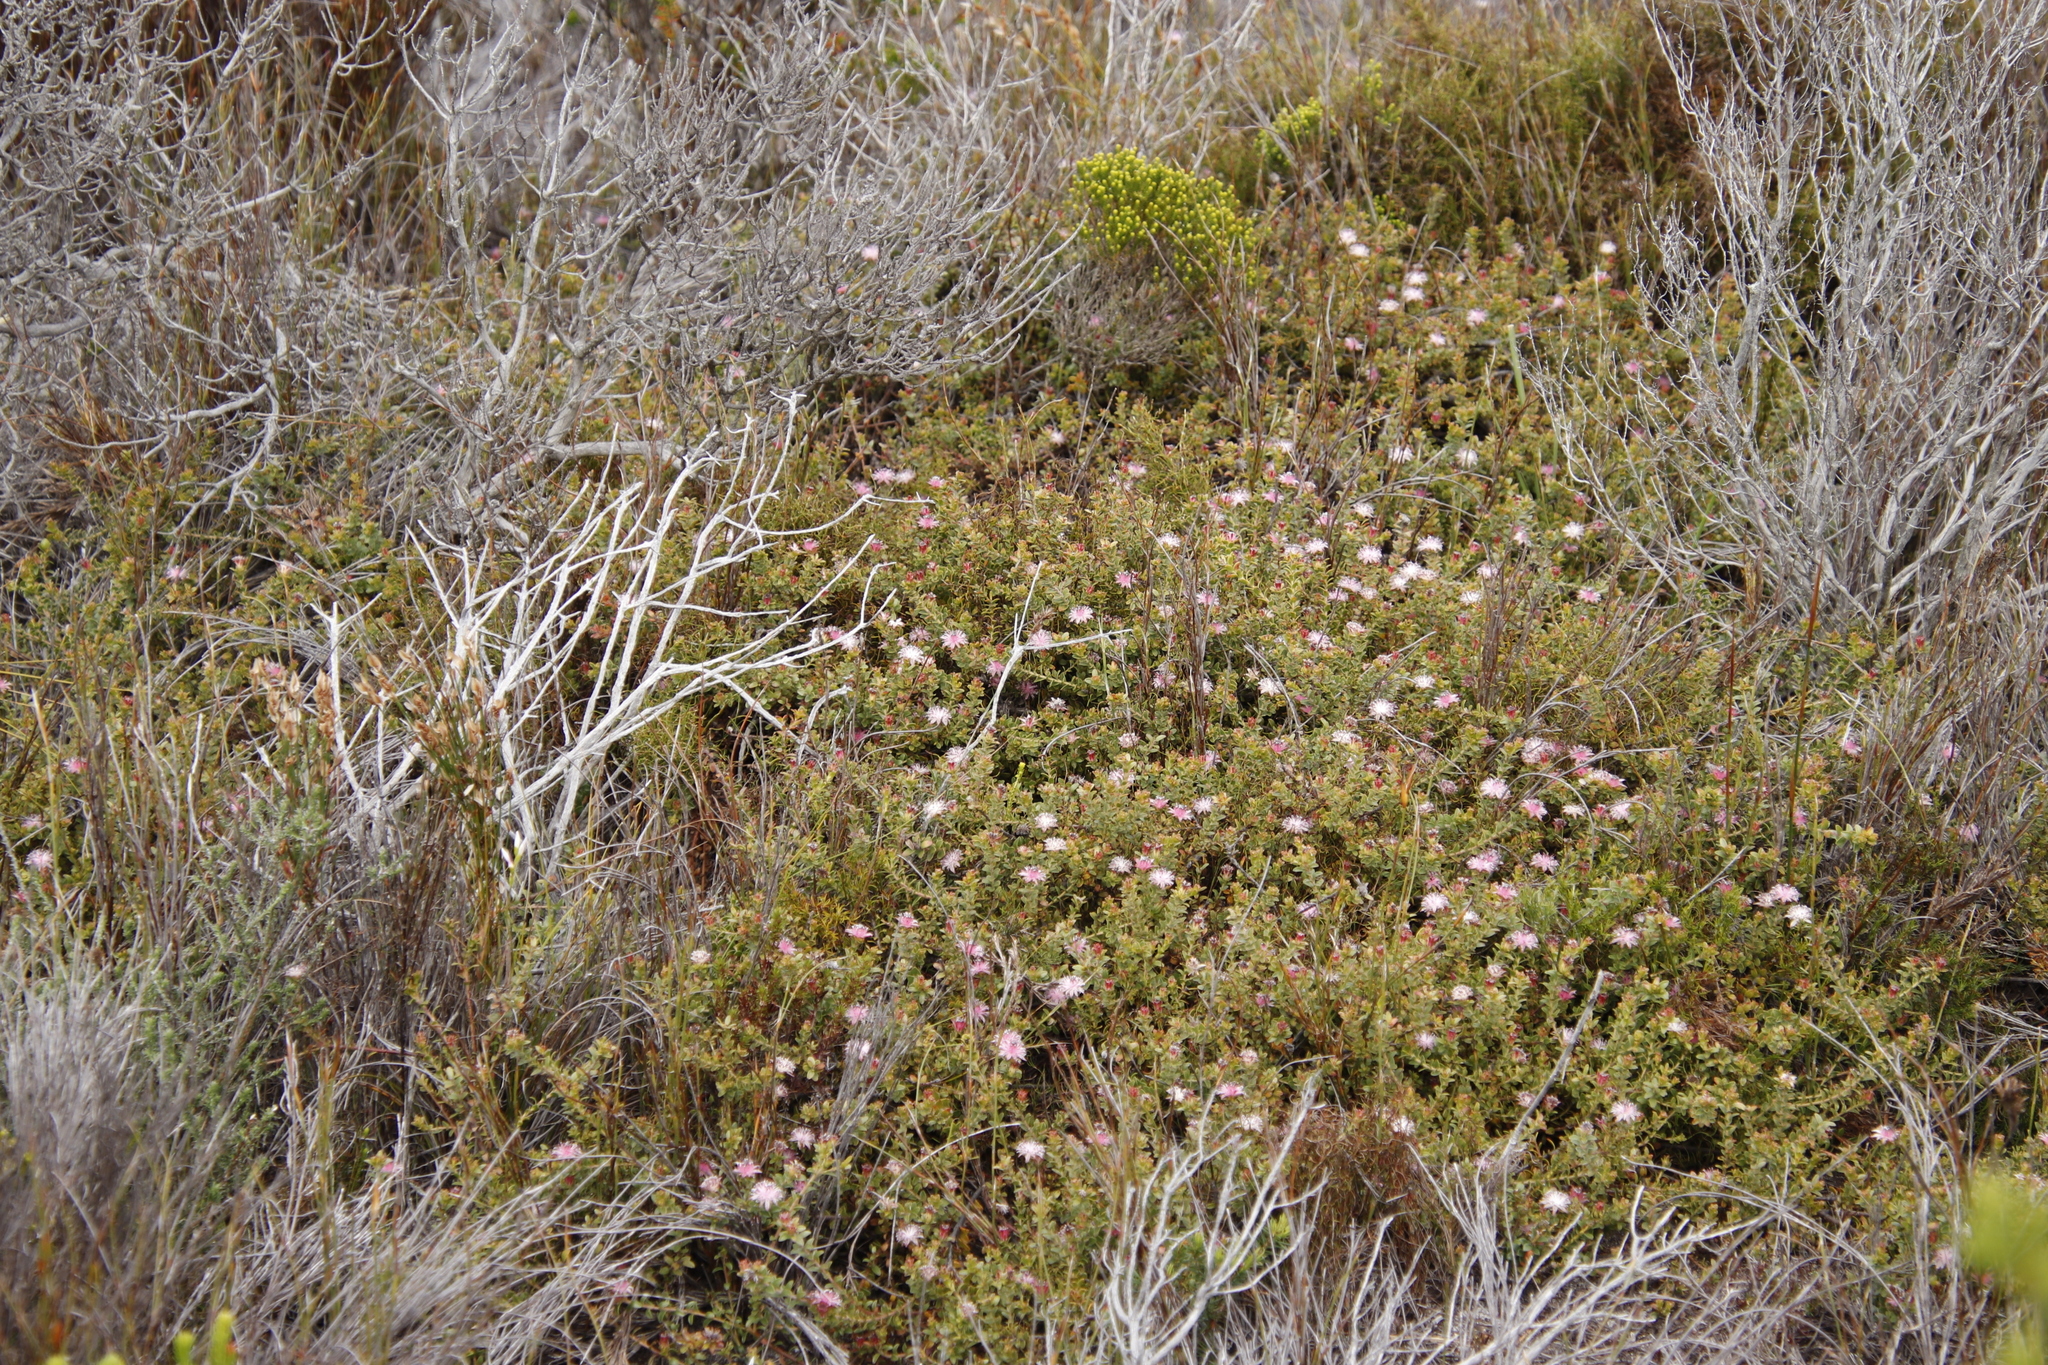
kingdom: Plantae
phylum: Tracheophyta
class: Magnoliopsida
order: Proteales
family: Proteaceae
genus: Diastella
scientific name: Diastella divaricata
